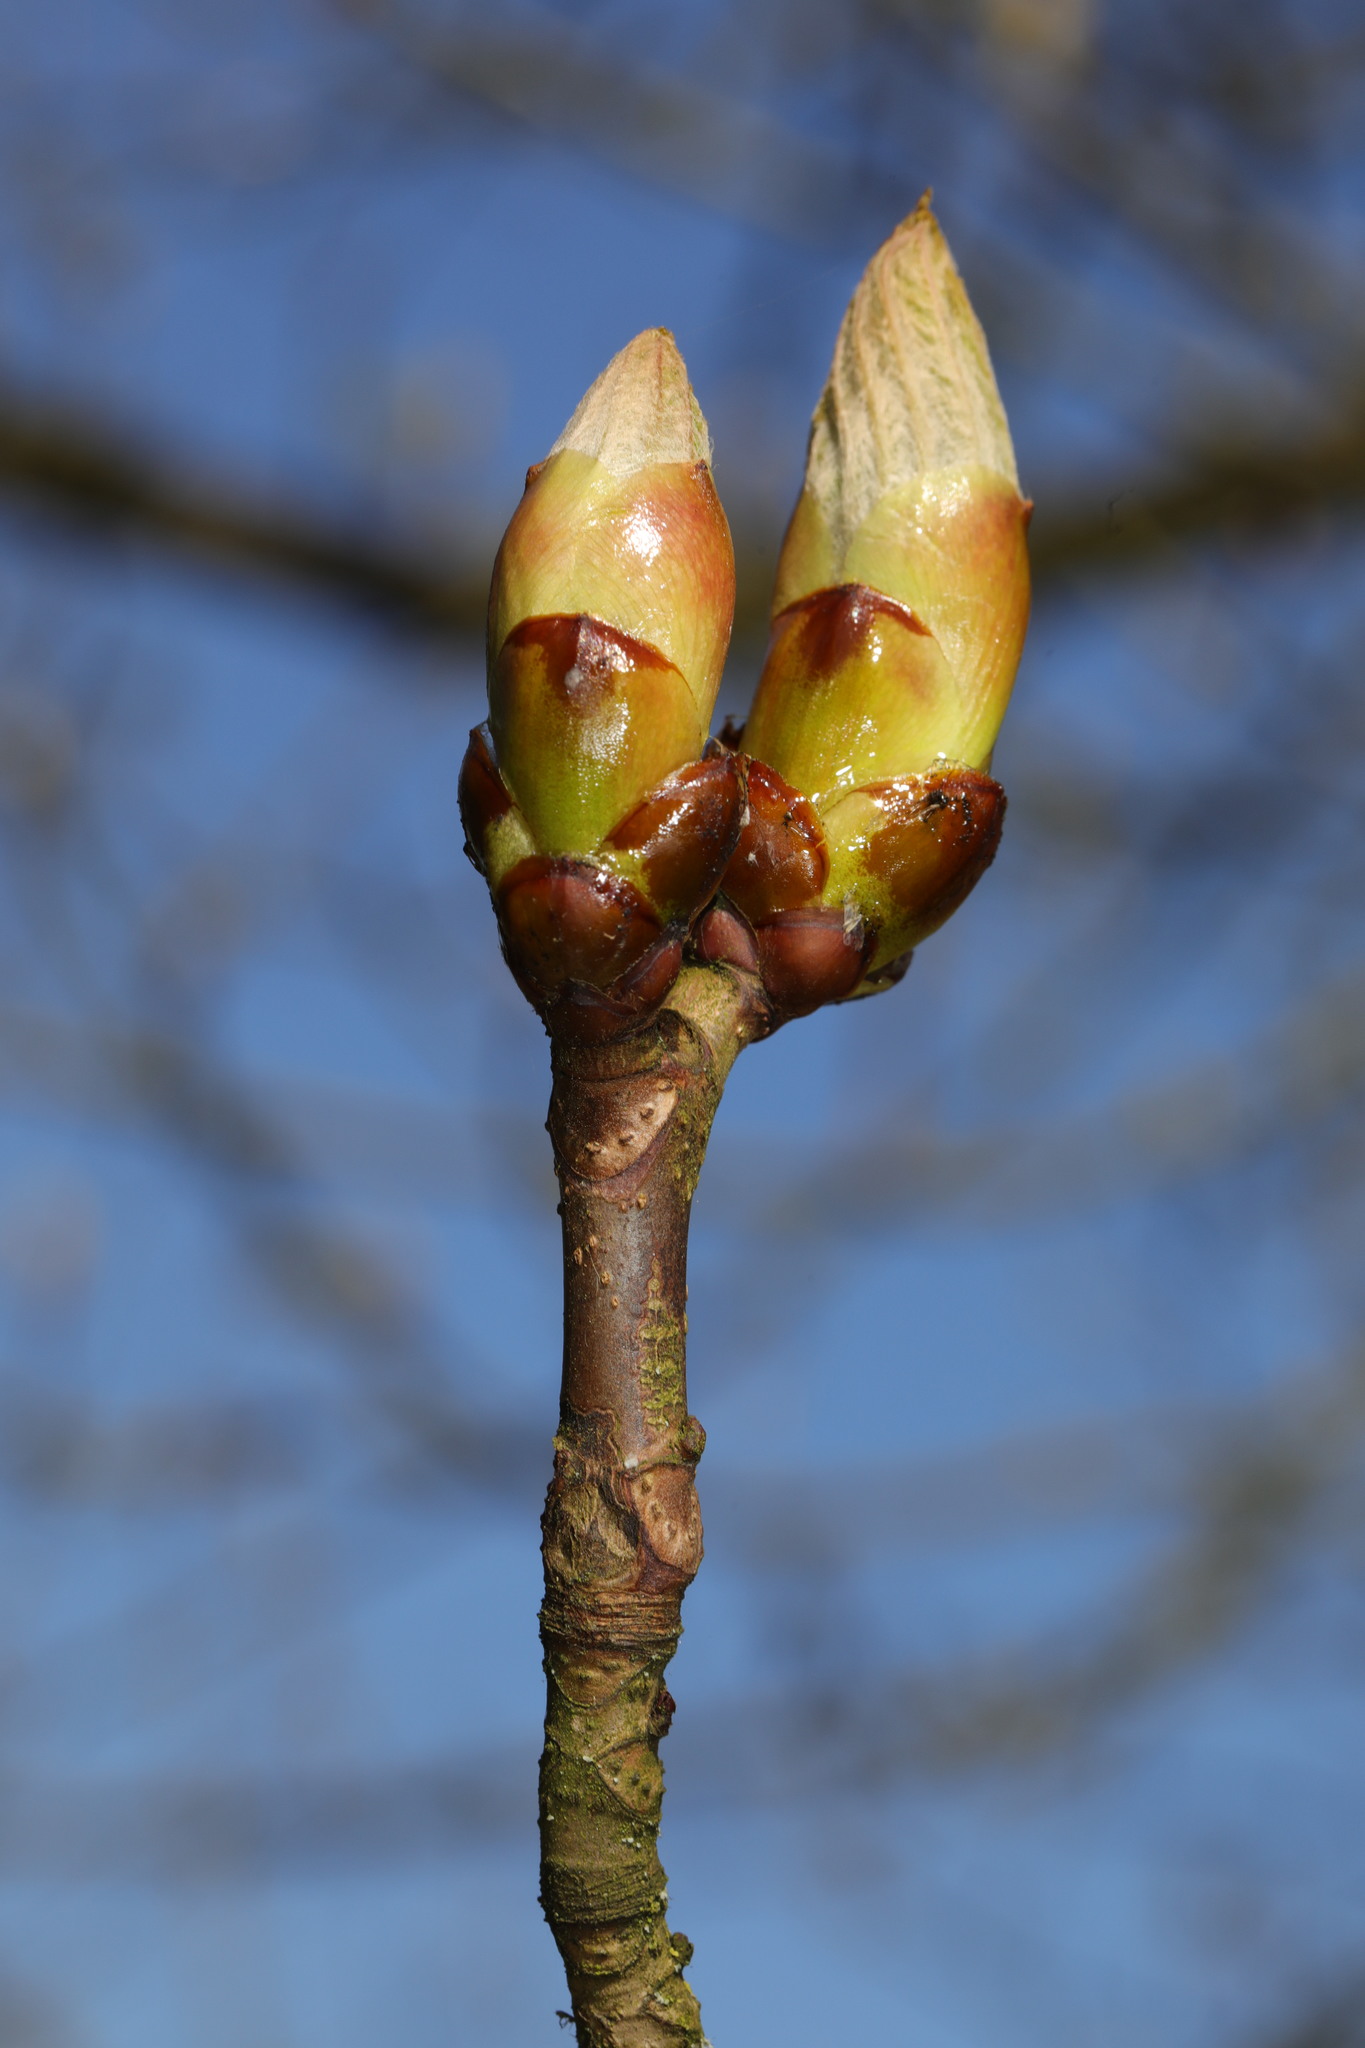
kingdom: Plantae
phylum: Tracheophyta
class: Magnoliopsida
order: Sapindales
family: Sapindaceae
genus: Aesculus
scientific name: Aesculus hippocastanum
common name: Horse-chestnut
